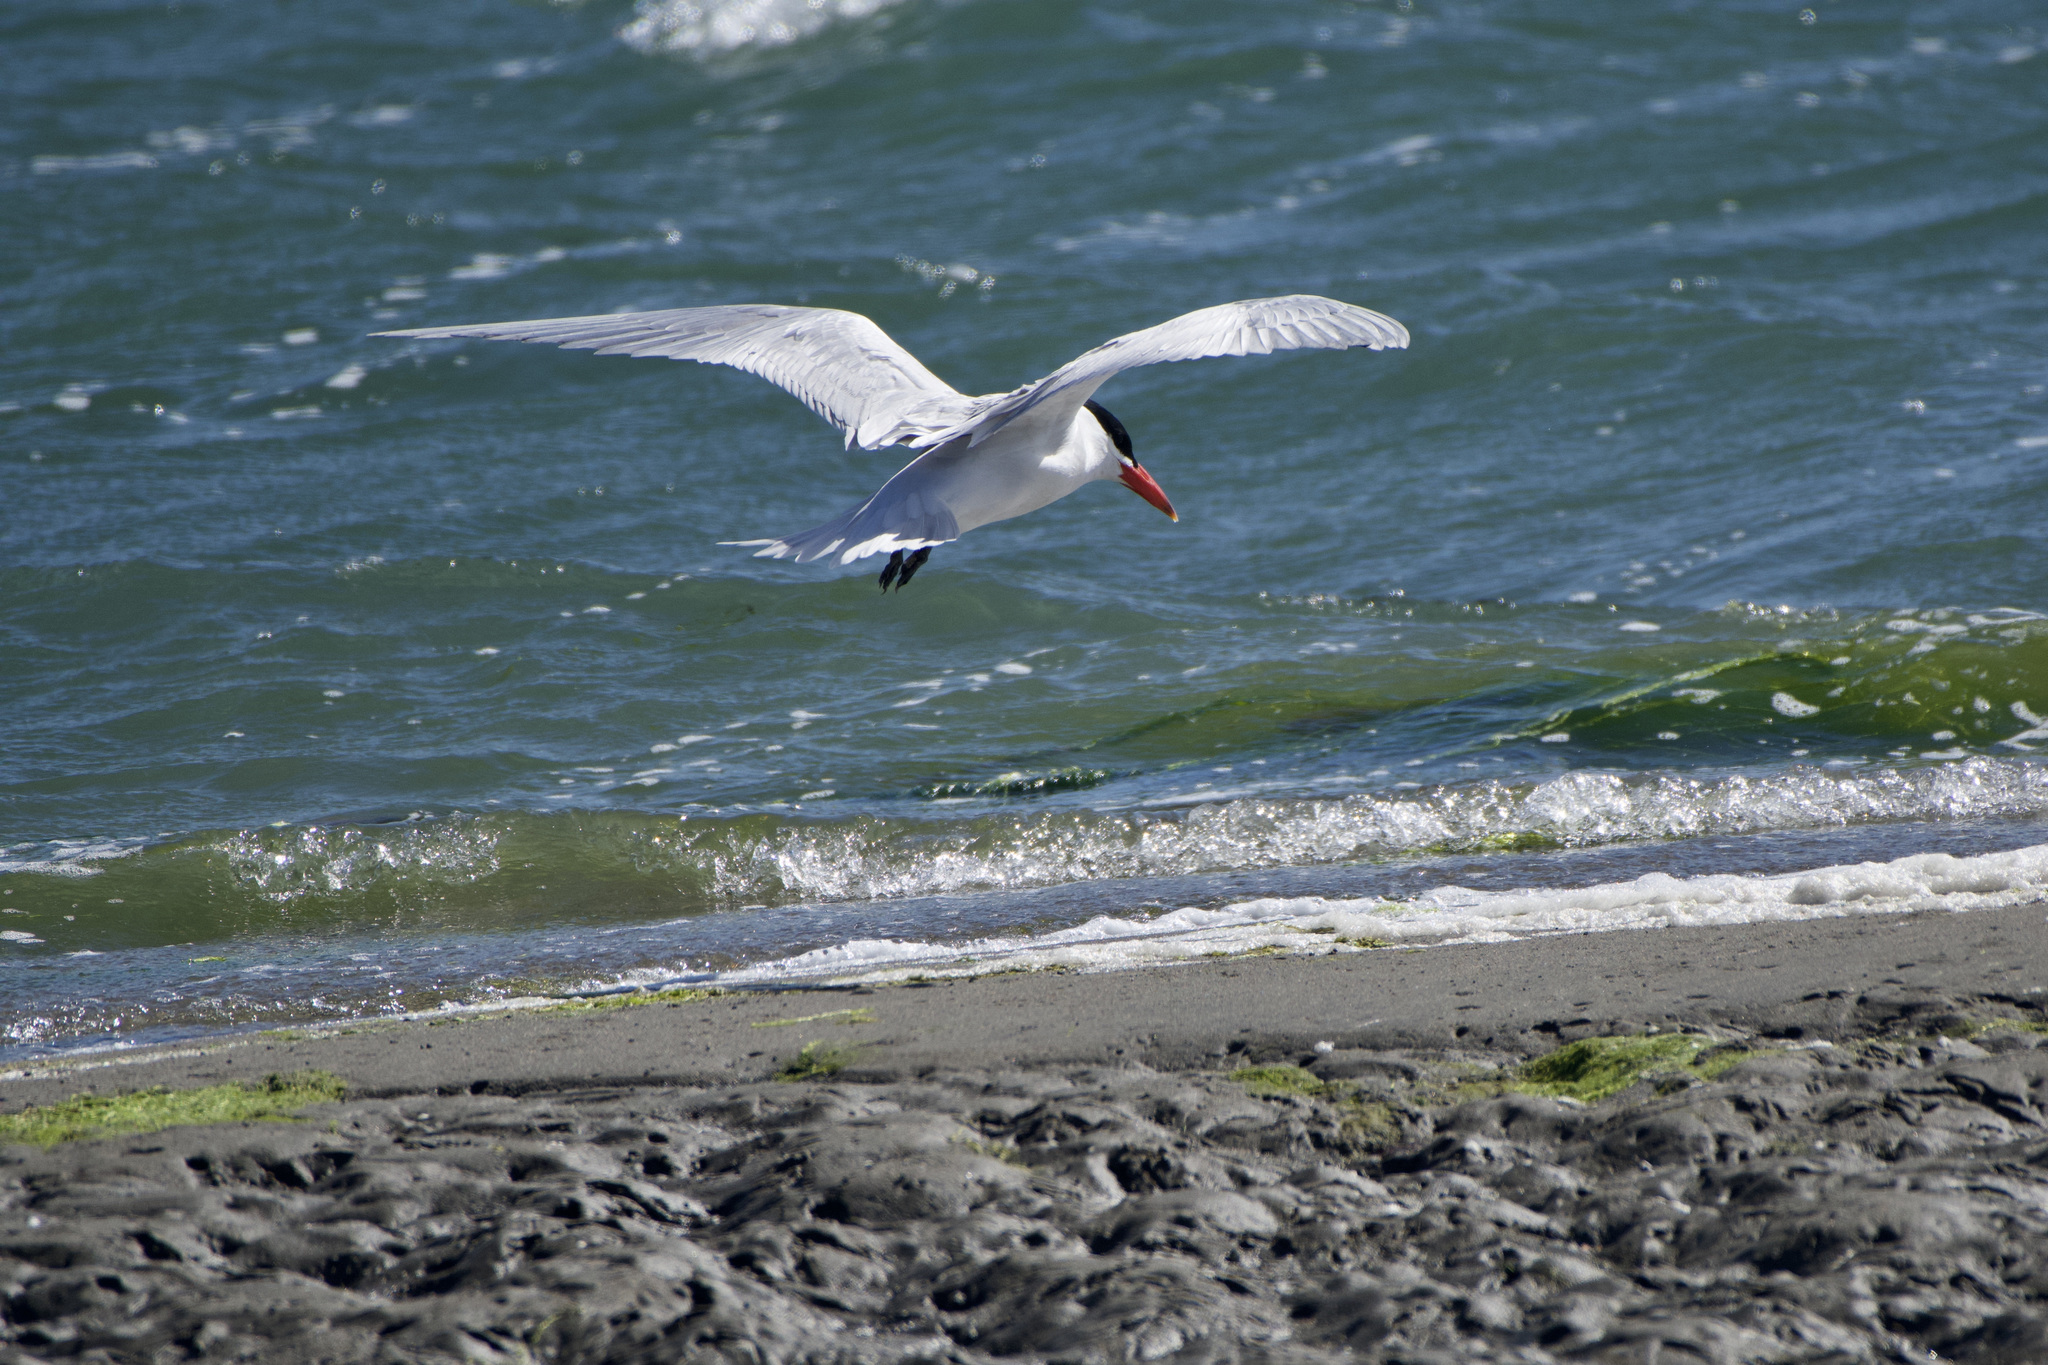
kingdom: Animalia
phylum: Chordata
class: Aves
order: Charadriiformes
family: Laridae
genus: Hydroprogne
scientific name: Hydroprogne caspia
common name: Caspian tern
